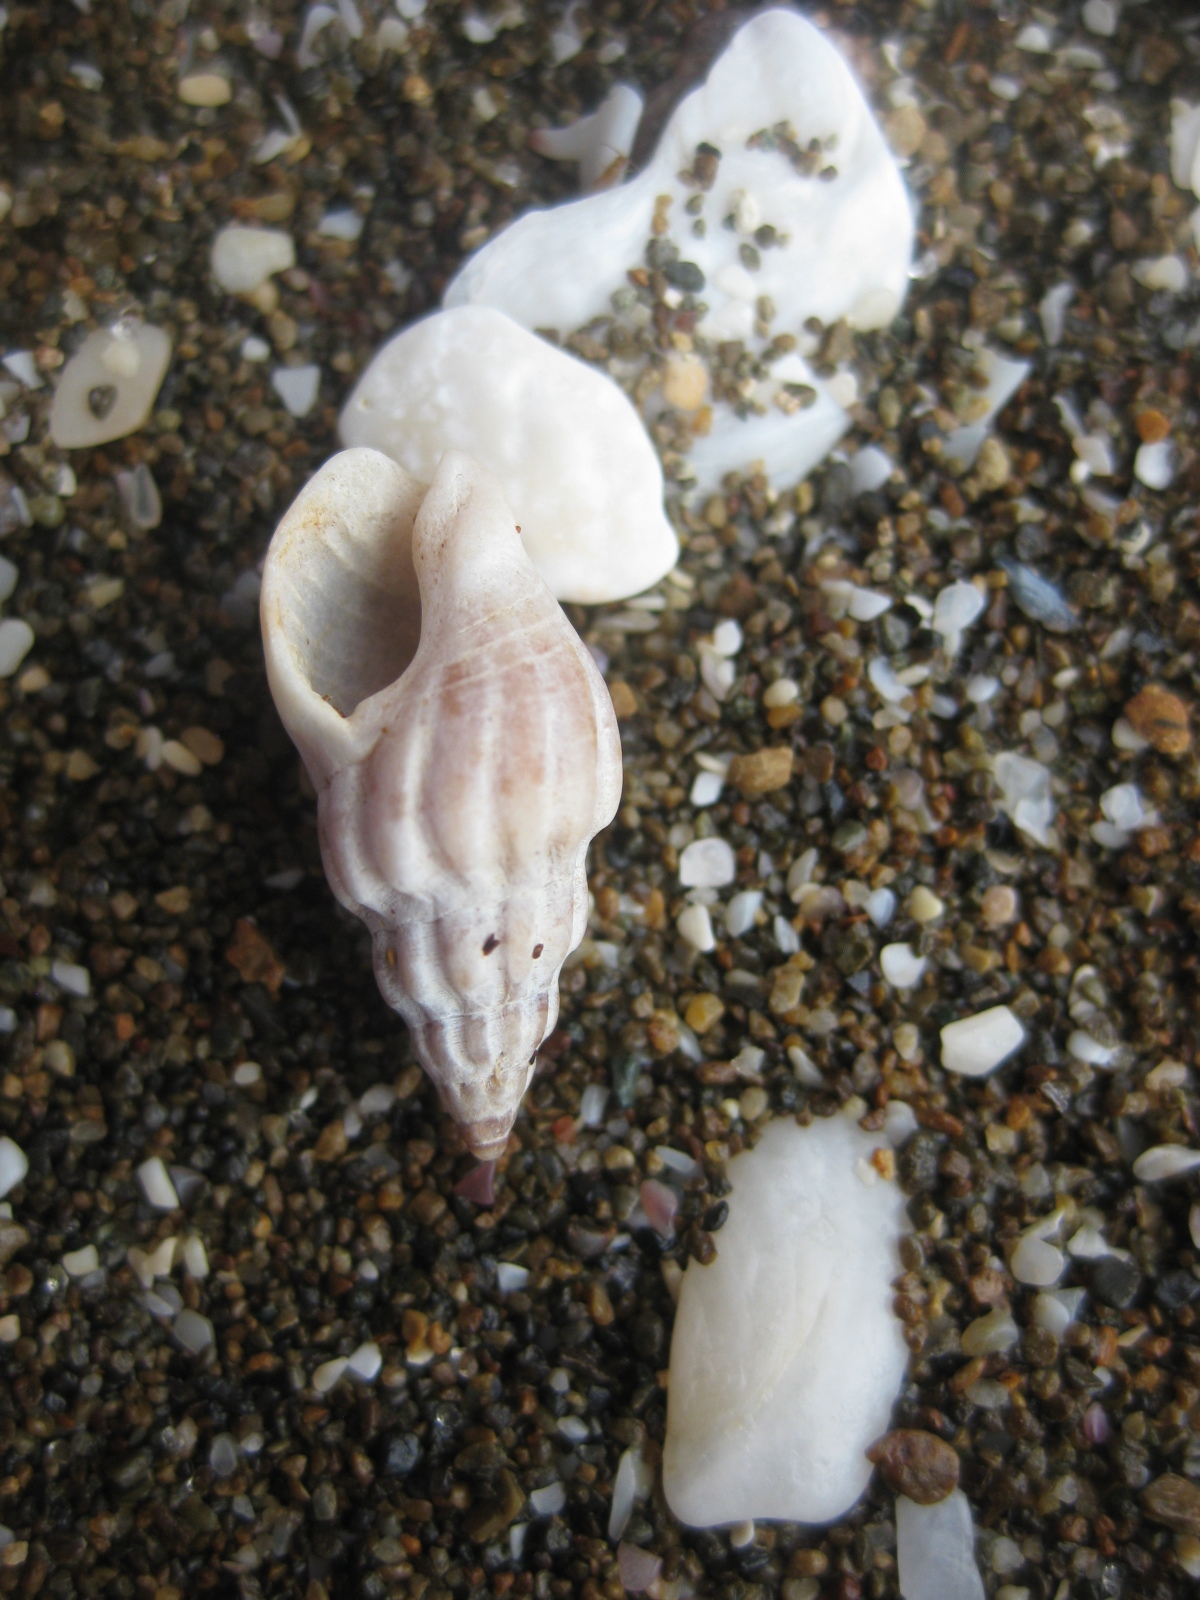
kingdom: Animalia
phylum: Mollusca
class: Gastropoda
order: Neogastropoda
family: Cominellidae
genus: Cominella
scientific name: Cominella quoyana
